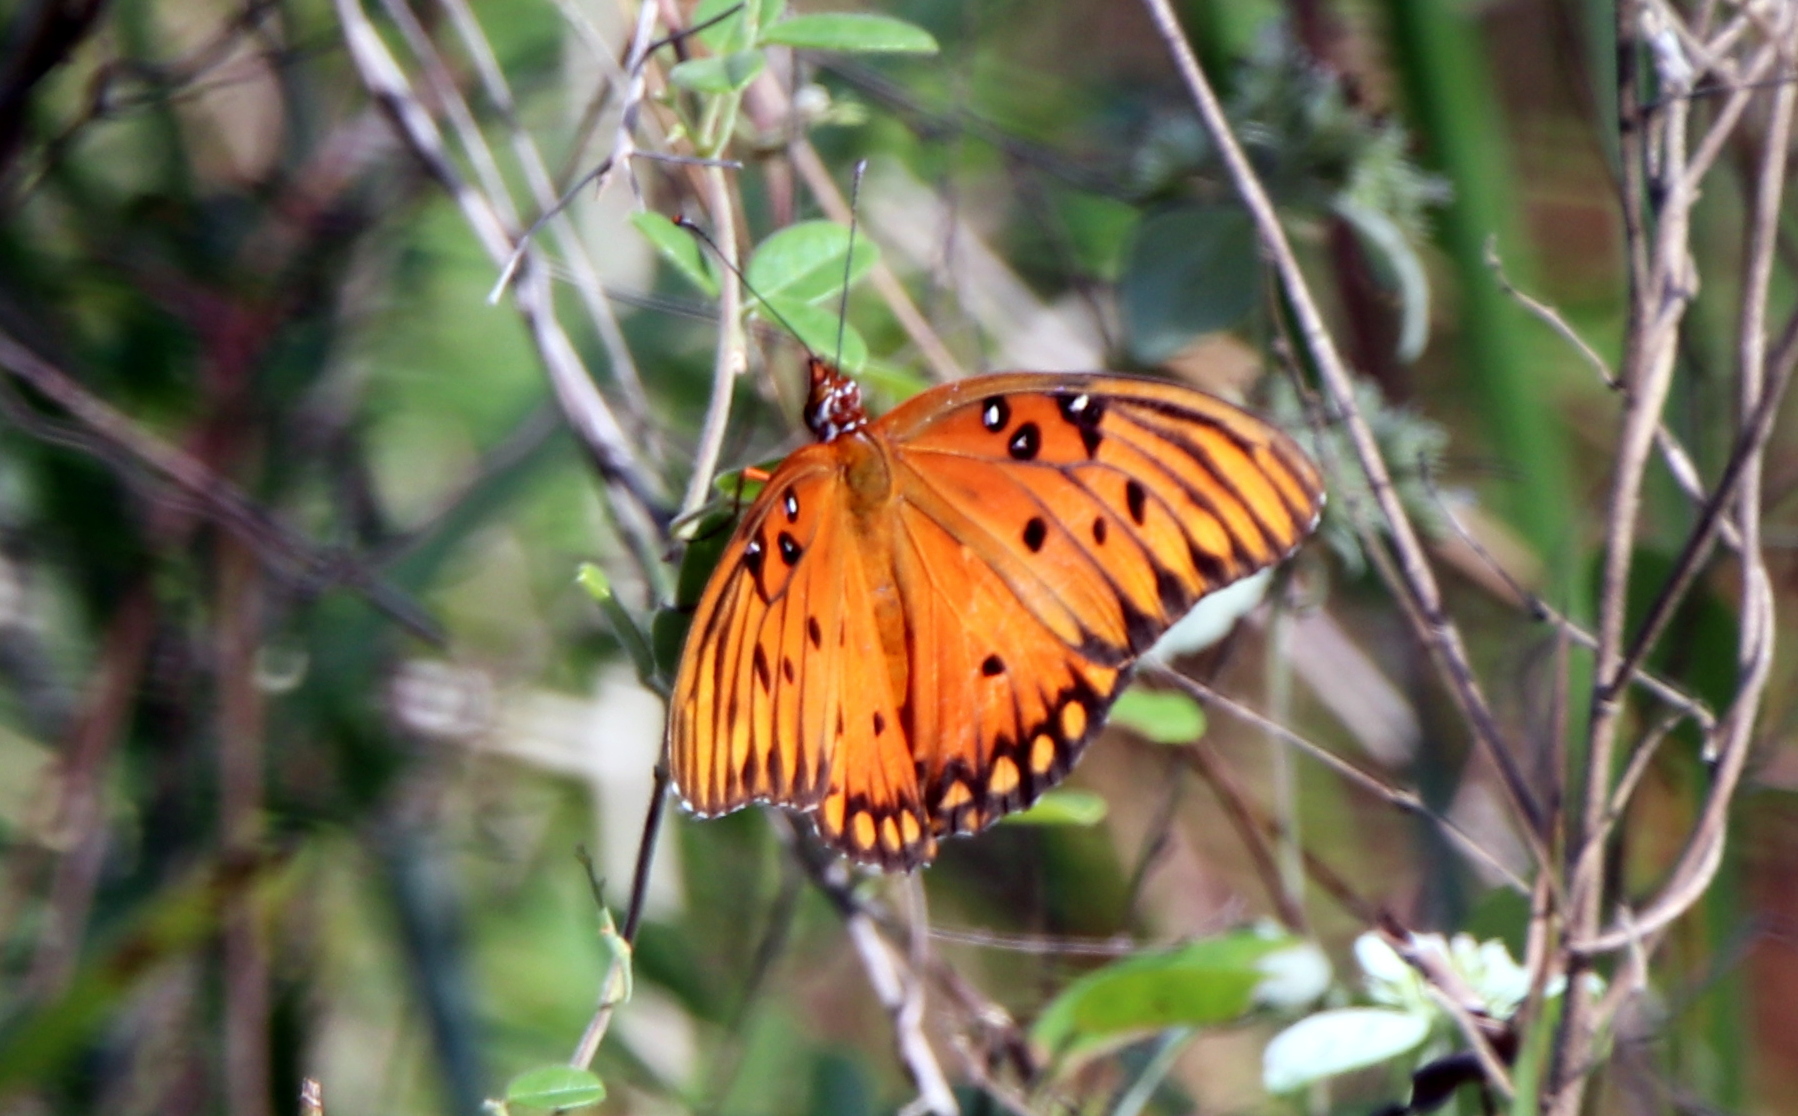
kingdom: Animalia
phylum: Arthropoda
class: Insecta
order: Lepidoptera
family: Nymphalidae
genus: Dione
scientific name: Dione vanillae
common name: Gulf fritillary
